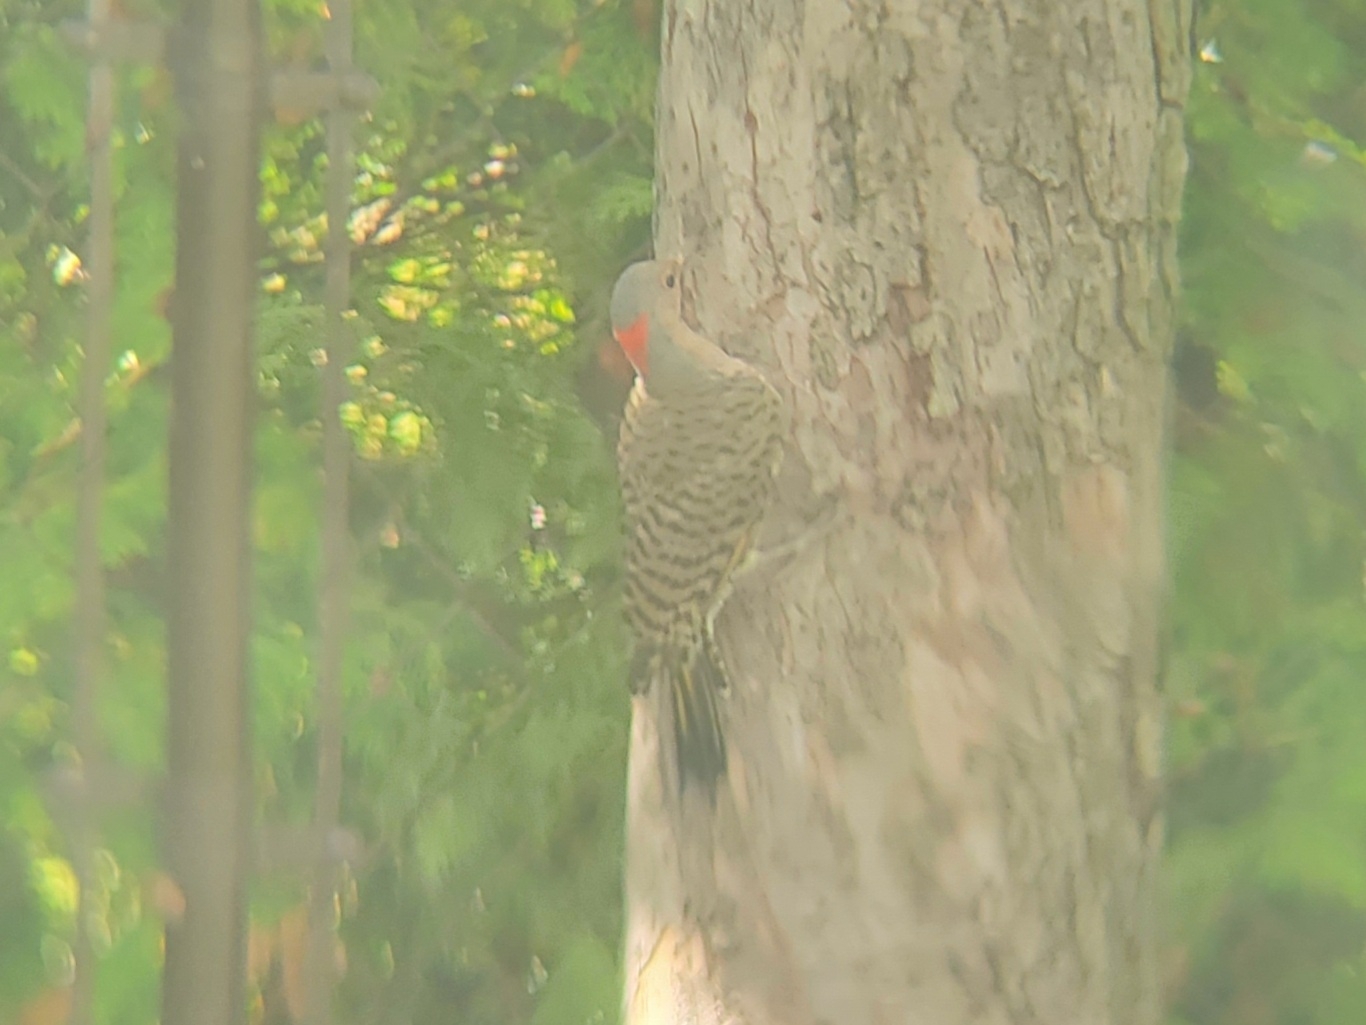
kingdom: Animalia
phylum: Chordata
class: Aves
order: Piciformes
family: Picidae
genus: Colaptes
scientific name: Colaptes auratus
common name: Northern flicker
